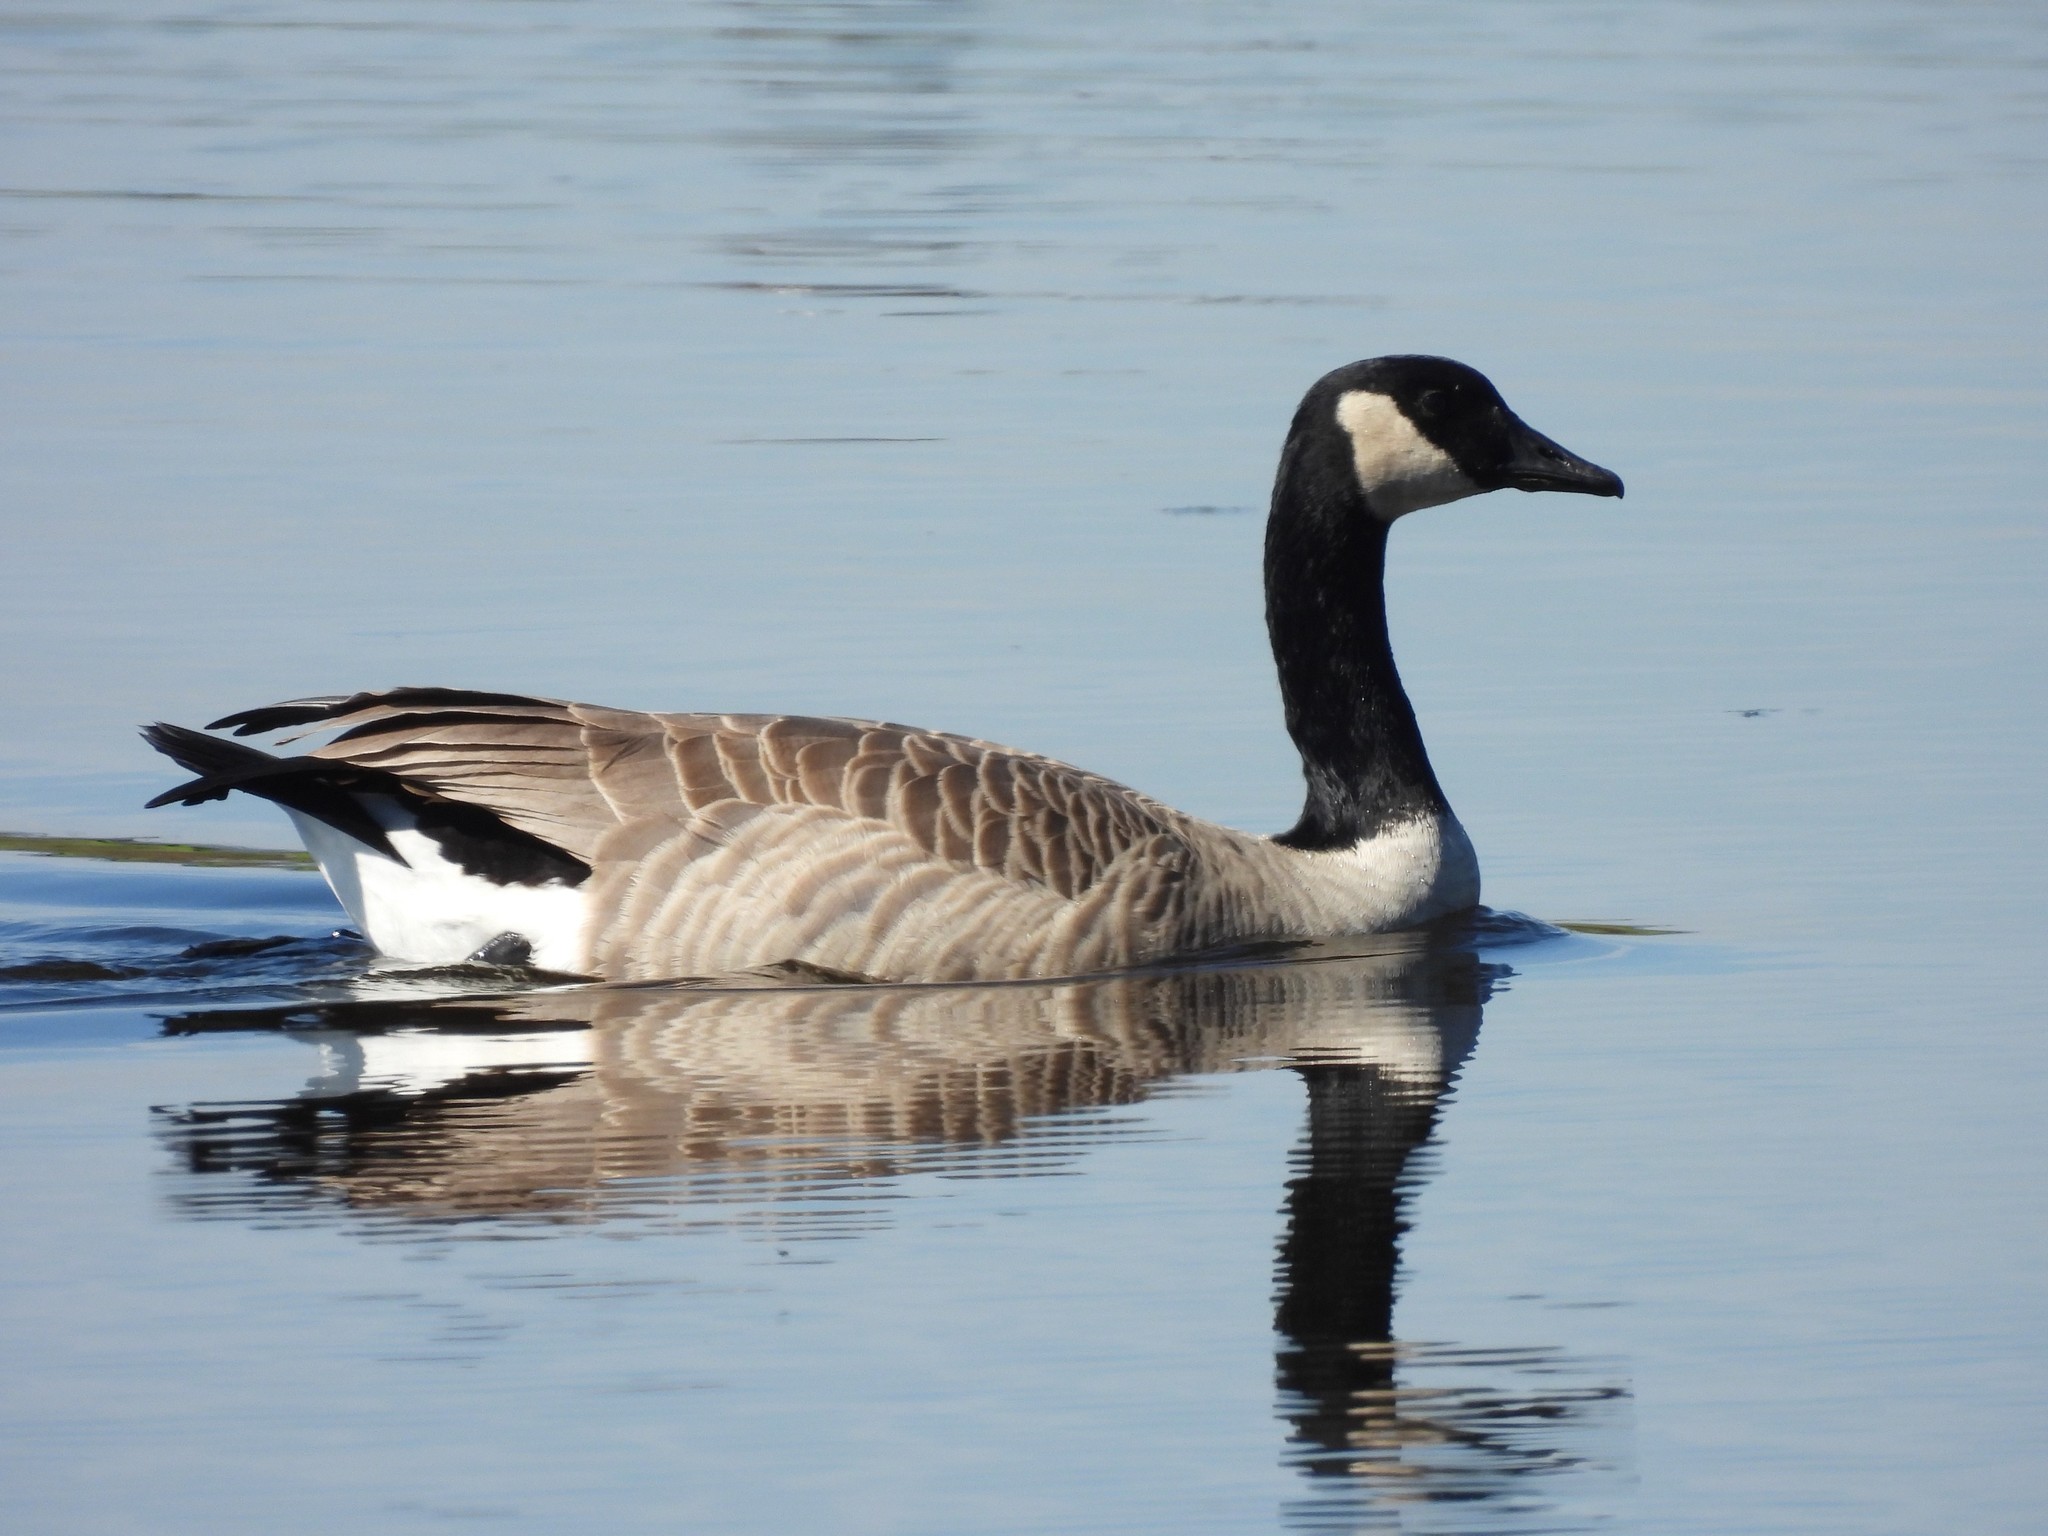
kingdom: Animalia
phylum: Chordata
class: Aves
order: Anseriformes
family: Anatidae
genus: Branta
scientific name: Branta canadensis
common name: Canada goose
